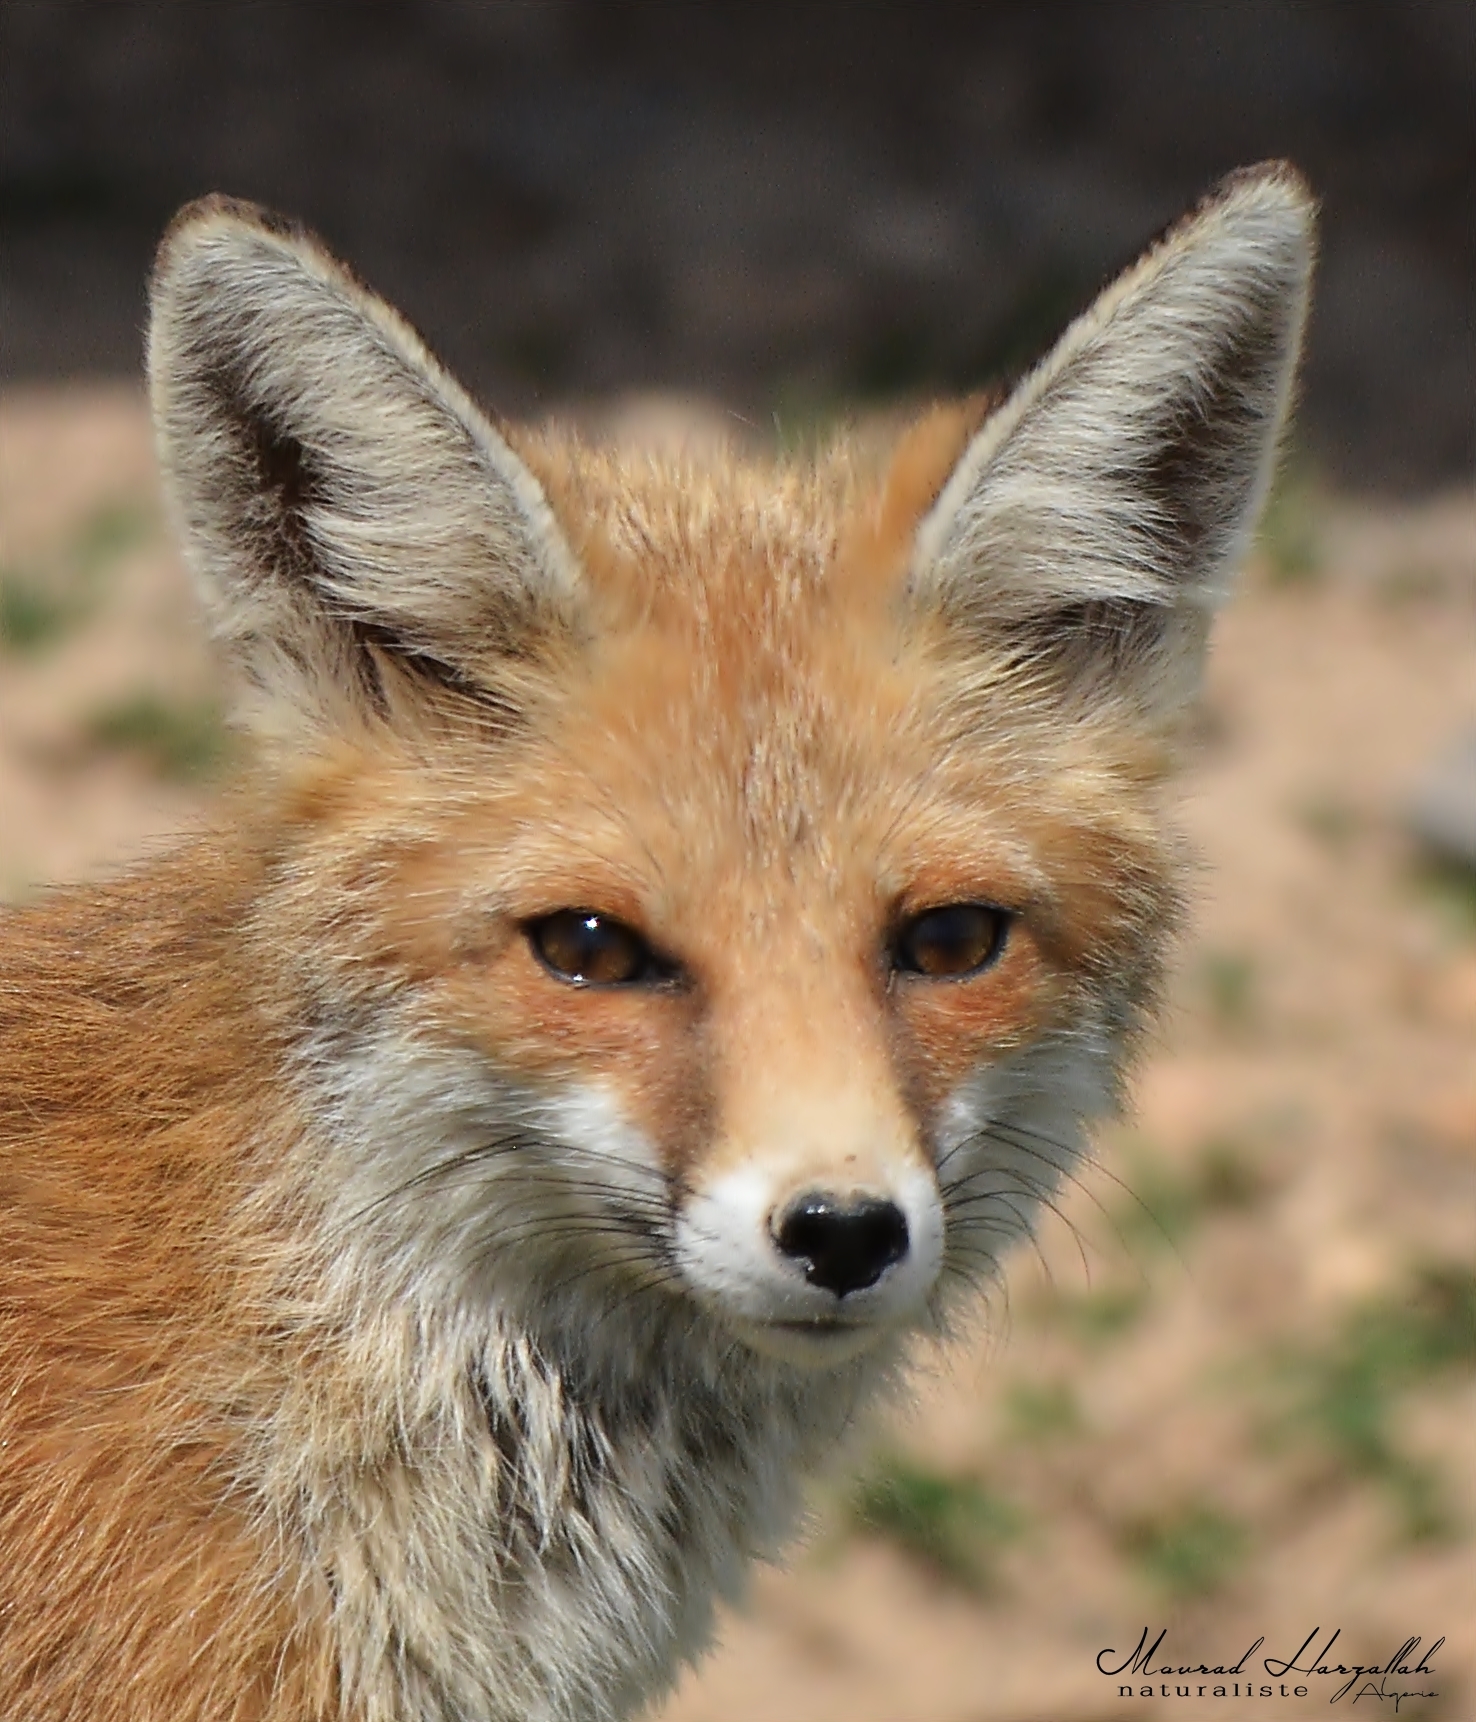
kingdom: Animalia
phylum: Chordata
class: Mammalia
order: Carnivora
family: Canidae
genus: Vulpes
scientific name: Vulpes vulpes
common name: Red fox
